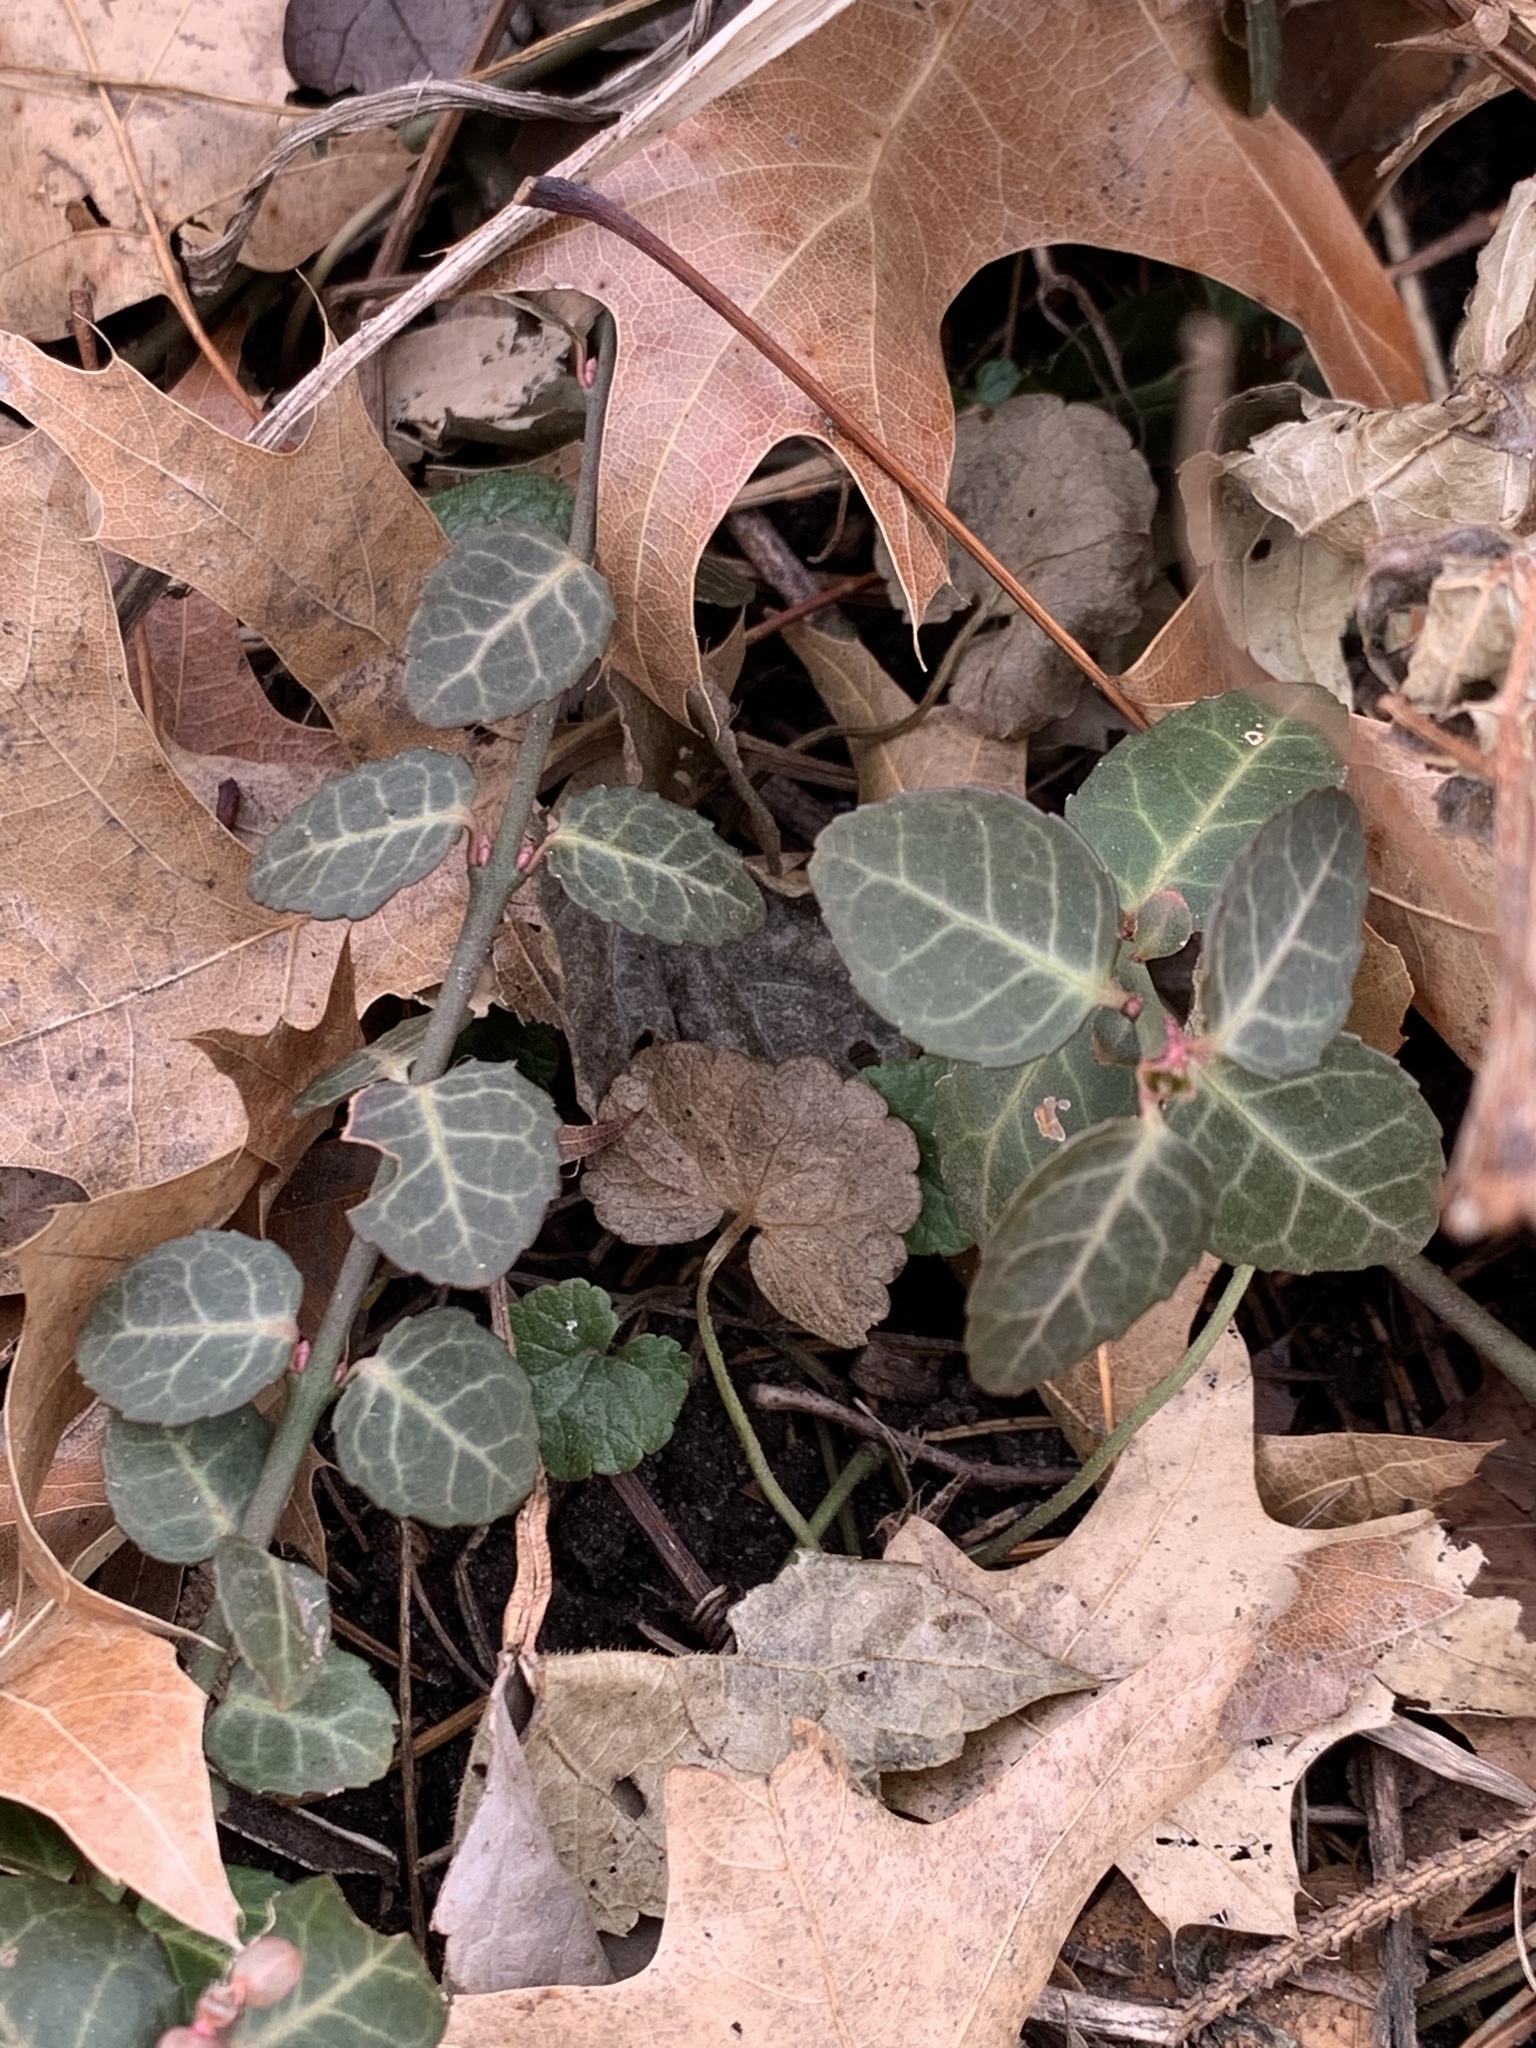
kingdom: Plantae
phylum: Tracheophyta
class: Magnoliopsida
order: Celastrales
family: Celastraceae
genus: Euonymus
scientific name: Euonymus fortunei
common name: Climbing euonymus
